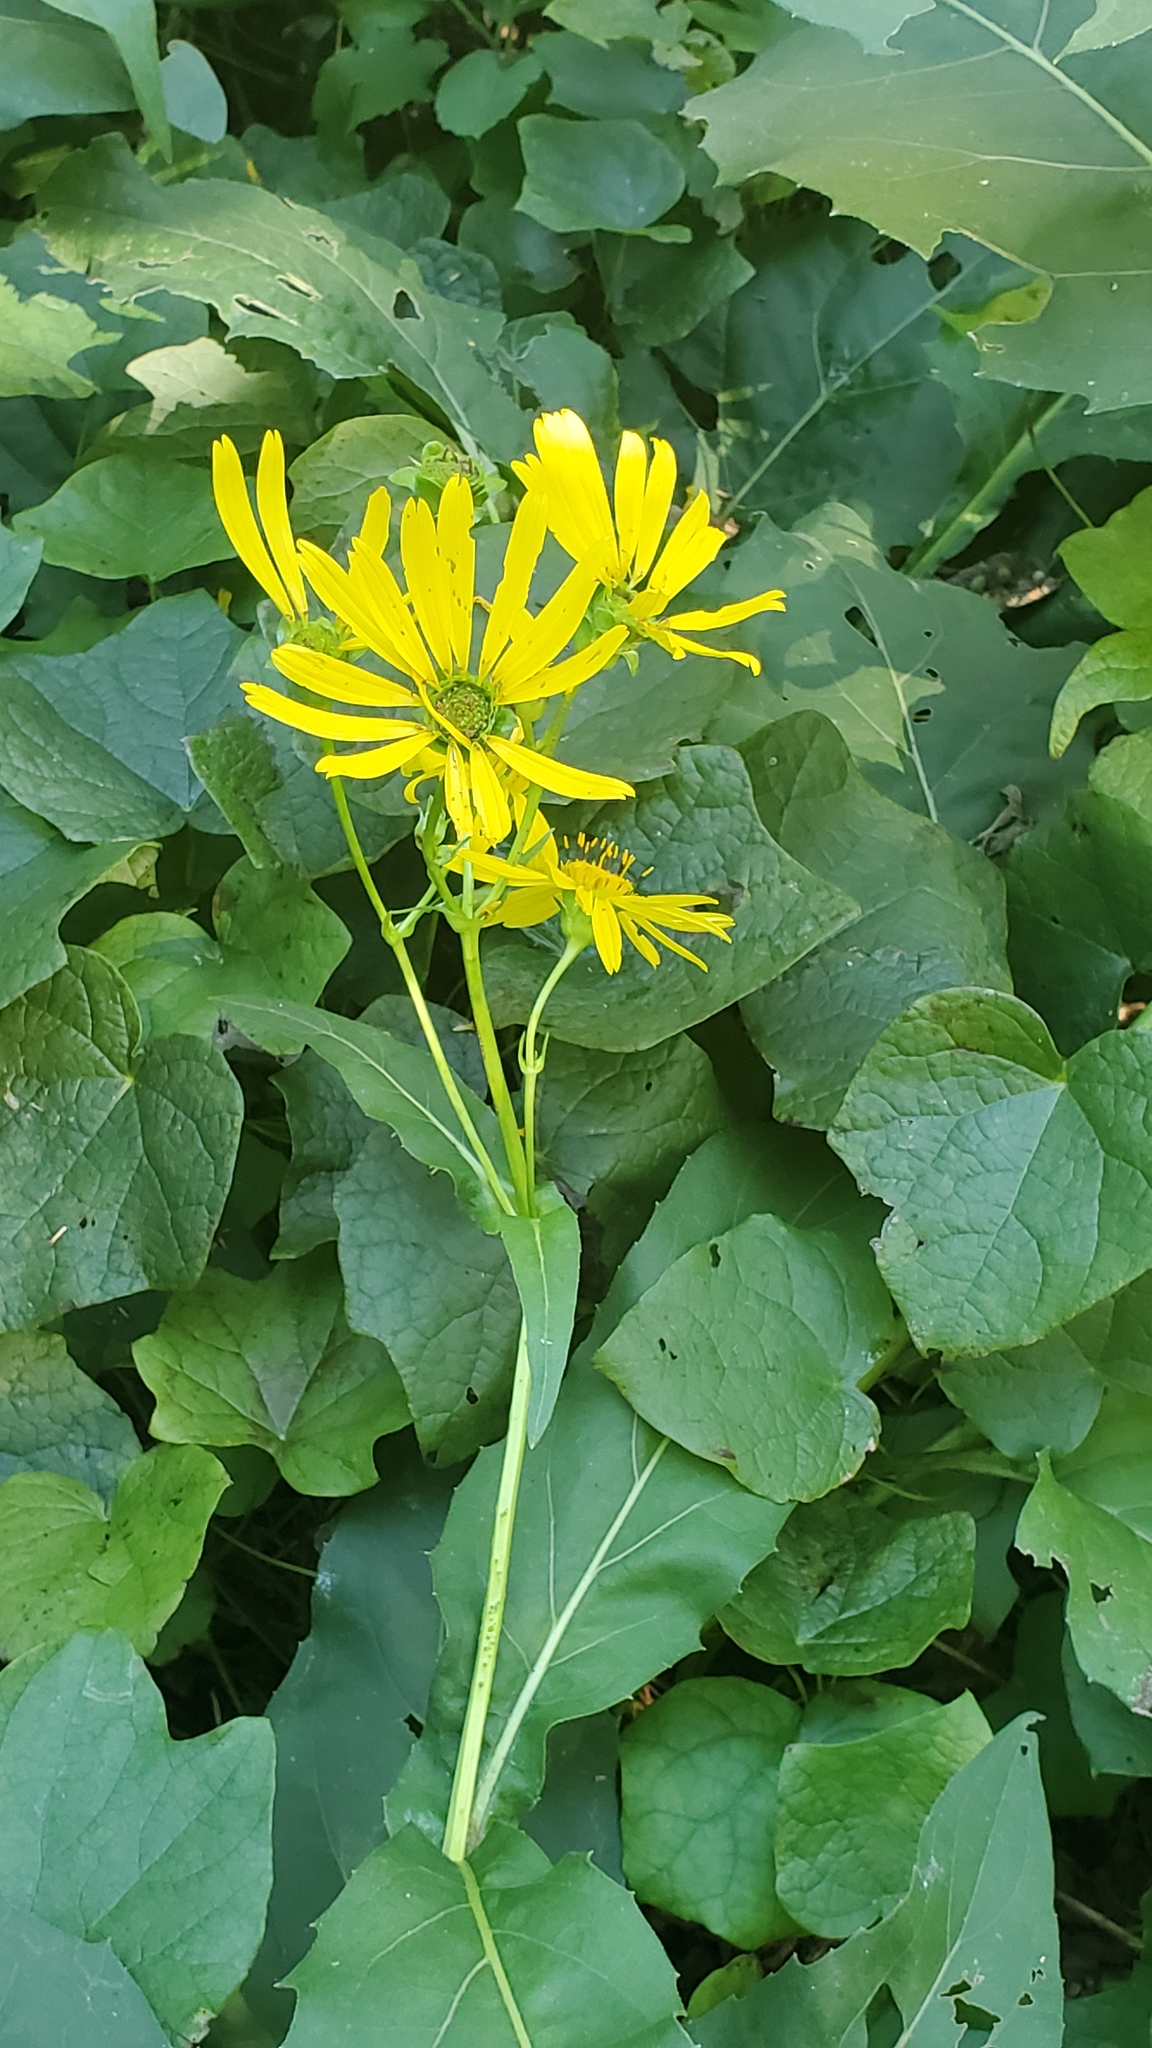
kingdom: Plantae
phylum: Tracheophyta
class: Magnoliopsida
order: Asterales
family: Asteraceae
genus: Silphium
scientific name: Silphium perfoliatum
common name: Cup-plant
